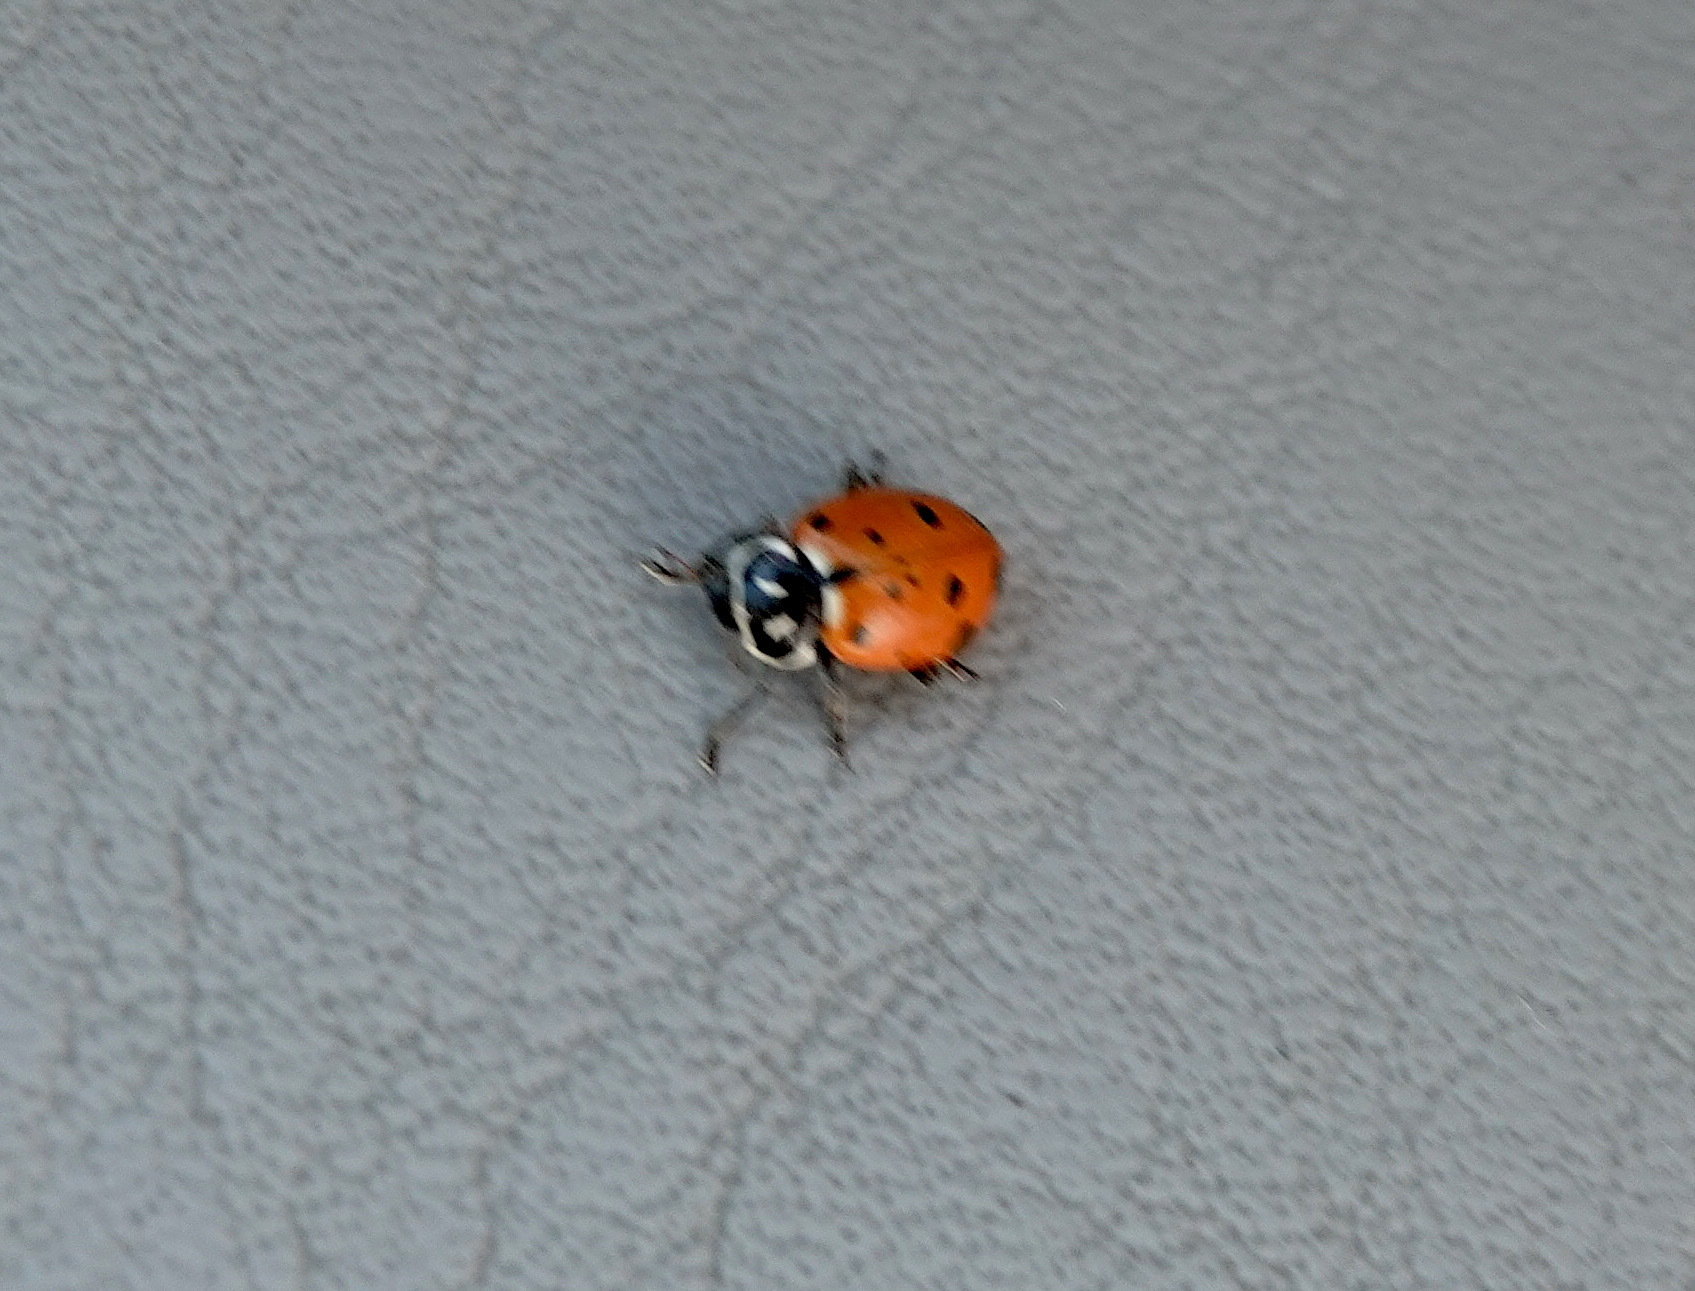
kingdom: Animalia
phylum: Arthropoda
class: Insecta
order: Coleoptera
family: Coccinellidae
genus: Hippodamia
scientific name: Hippodamia convergens
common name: Convergent lady beetle
